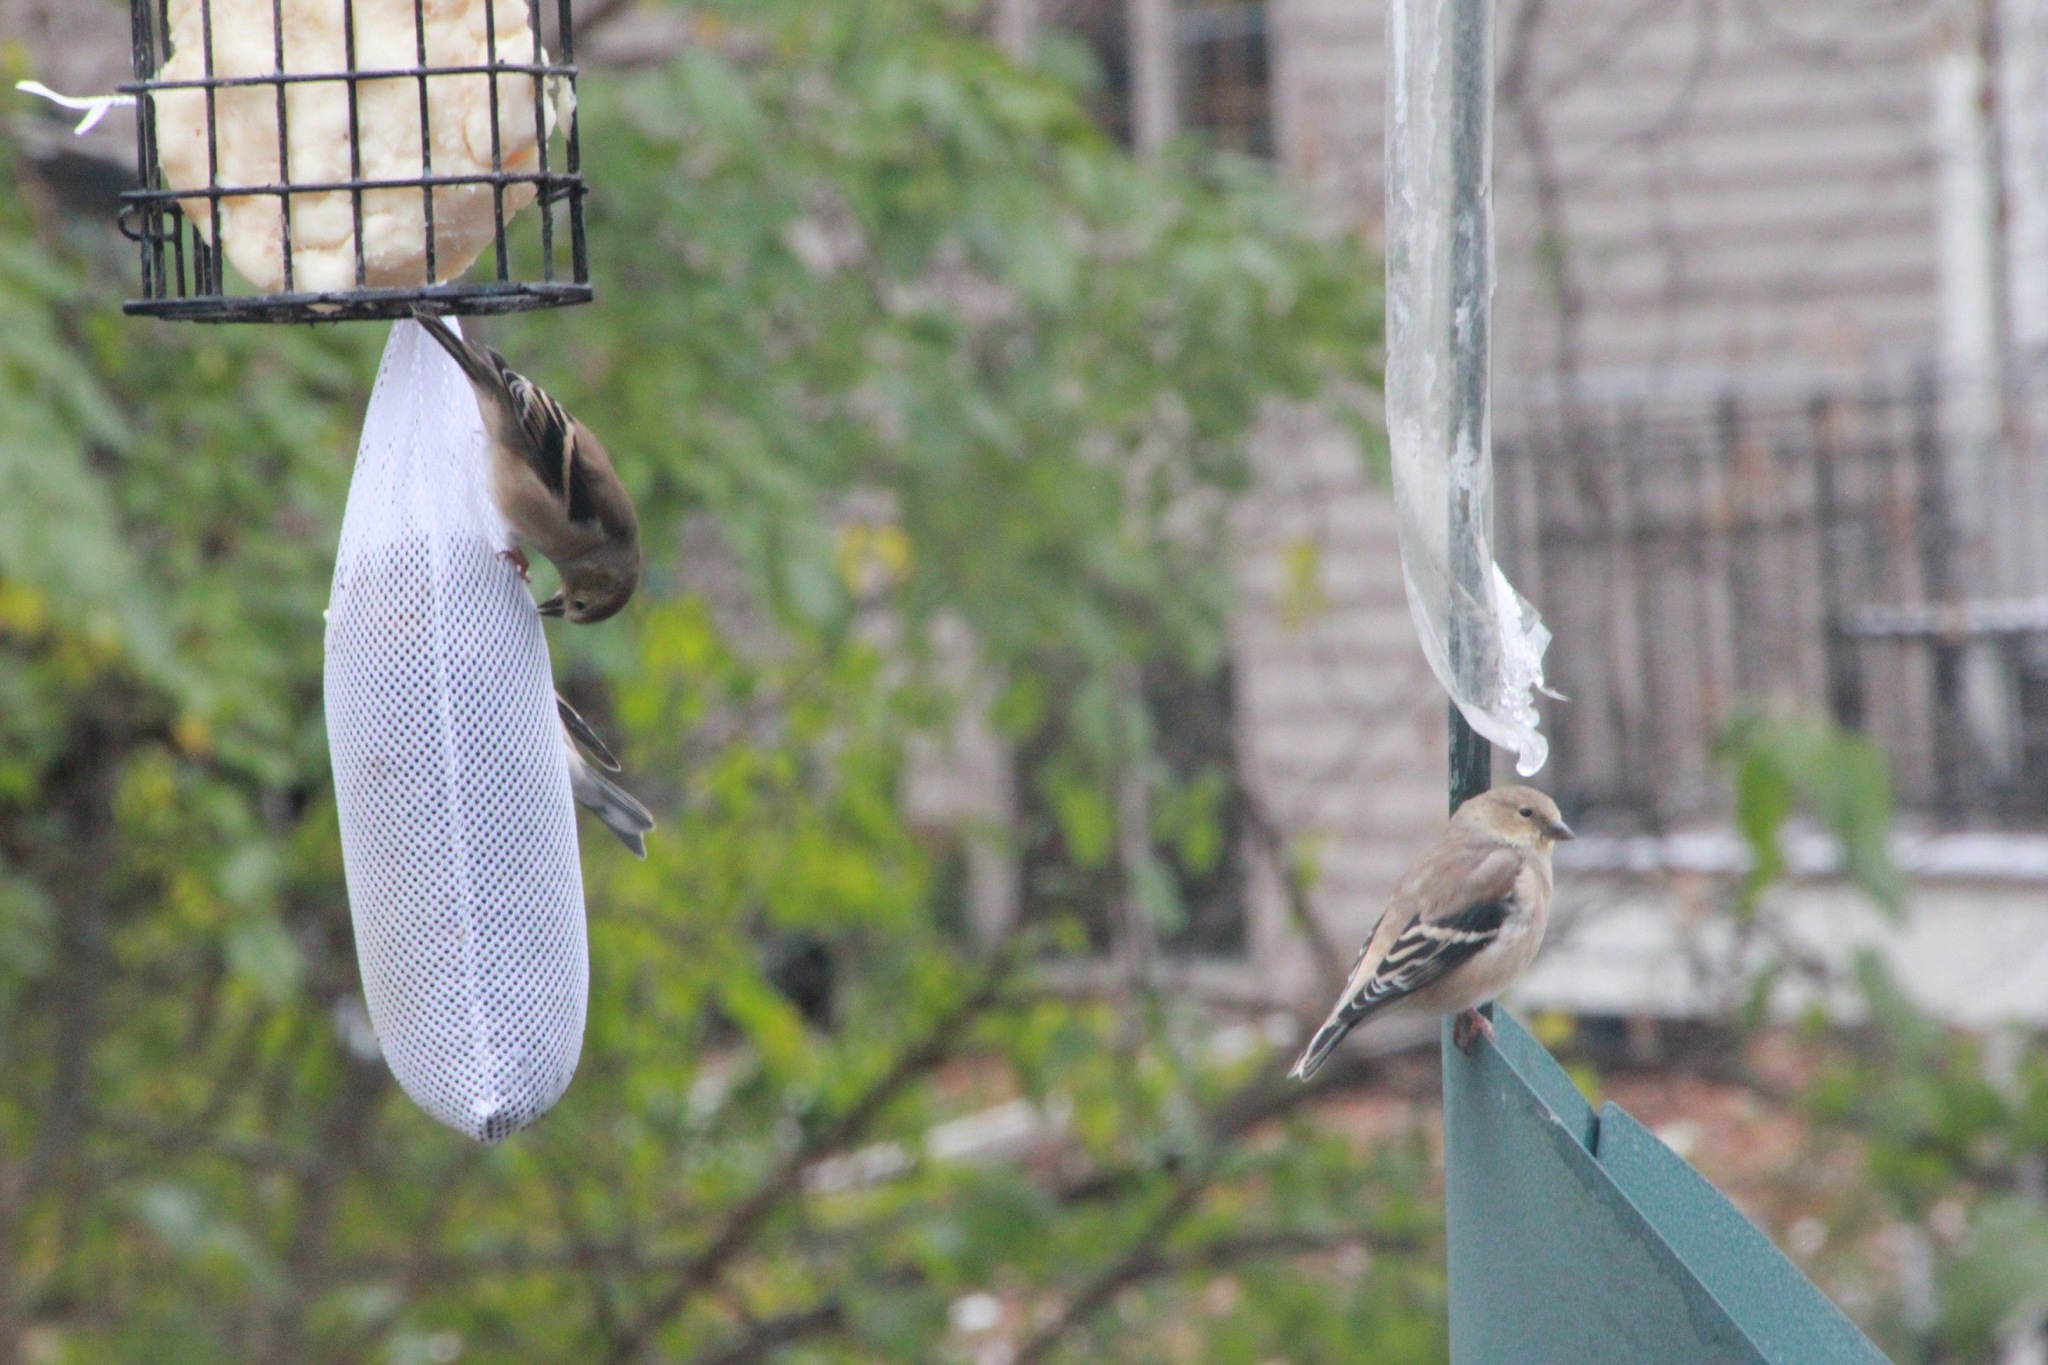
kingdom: Animalia
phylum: Chordata
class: Aves
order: Passeriformes
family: Fringillidae
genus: Spinus
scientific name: Spinus tristis
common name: American goldfinch
